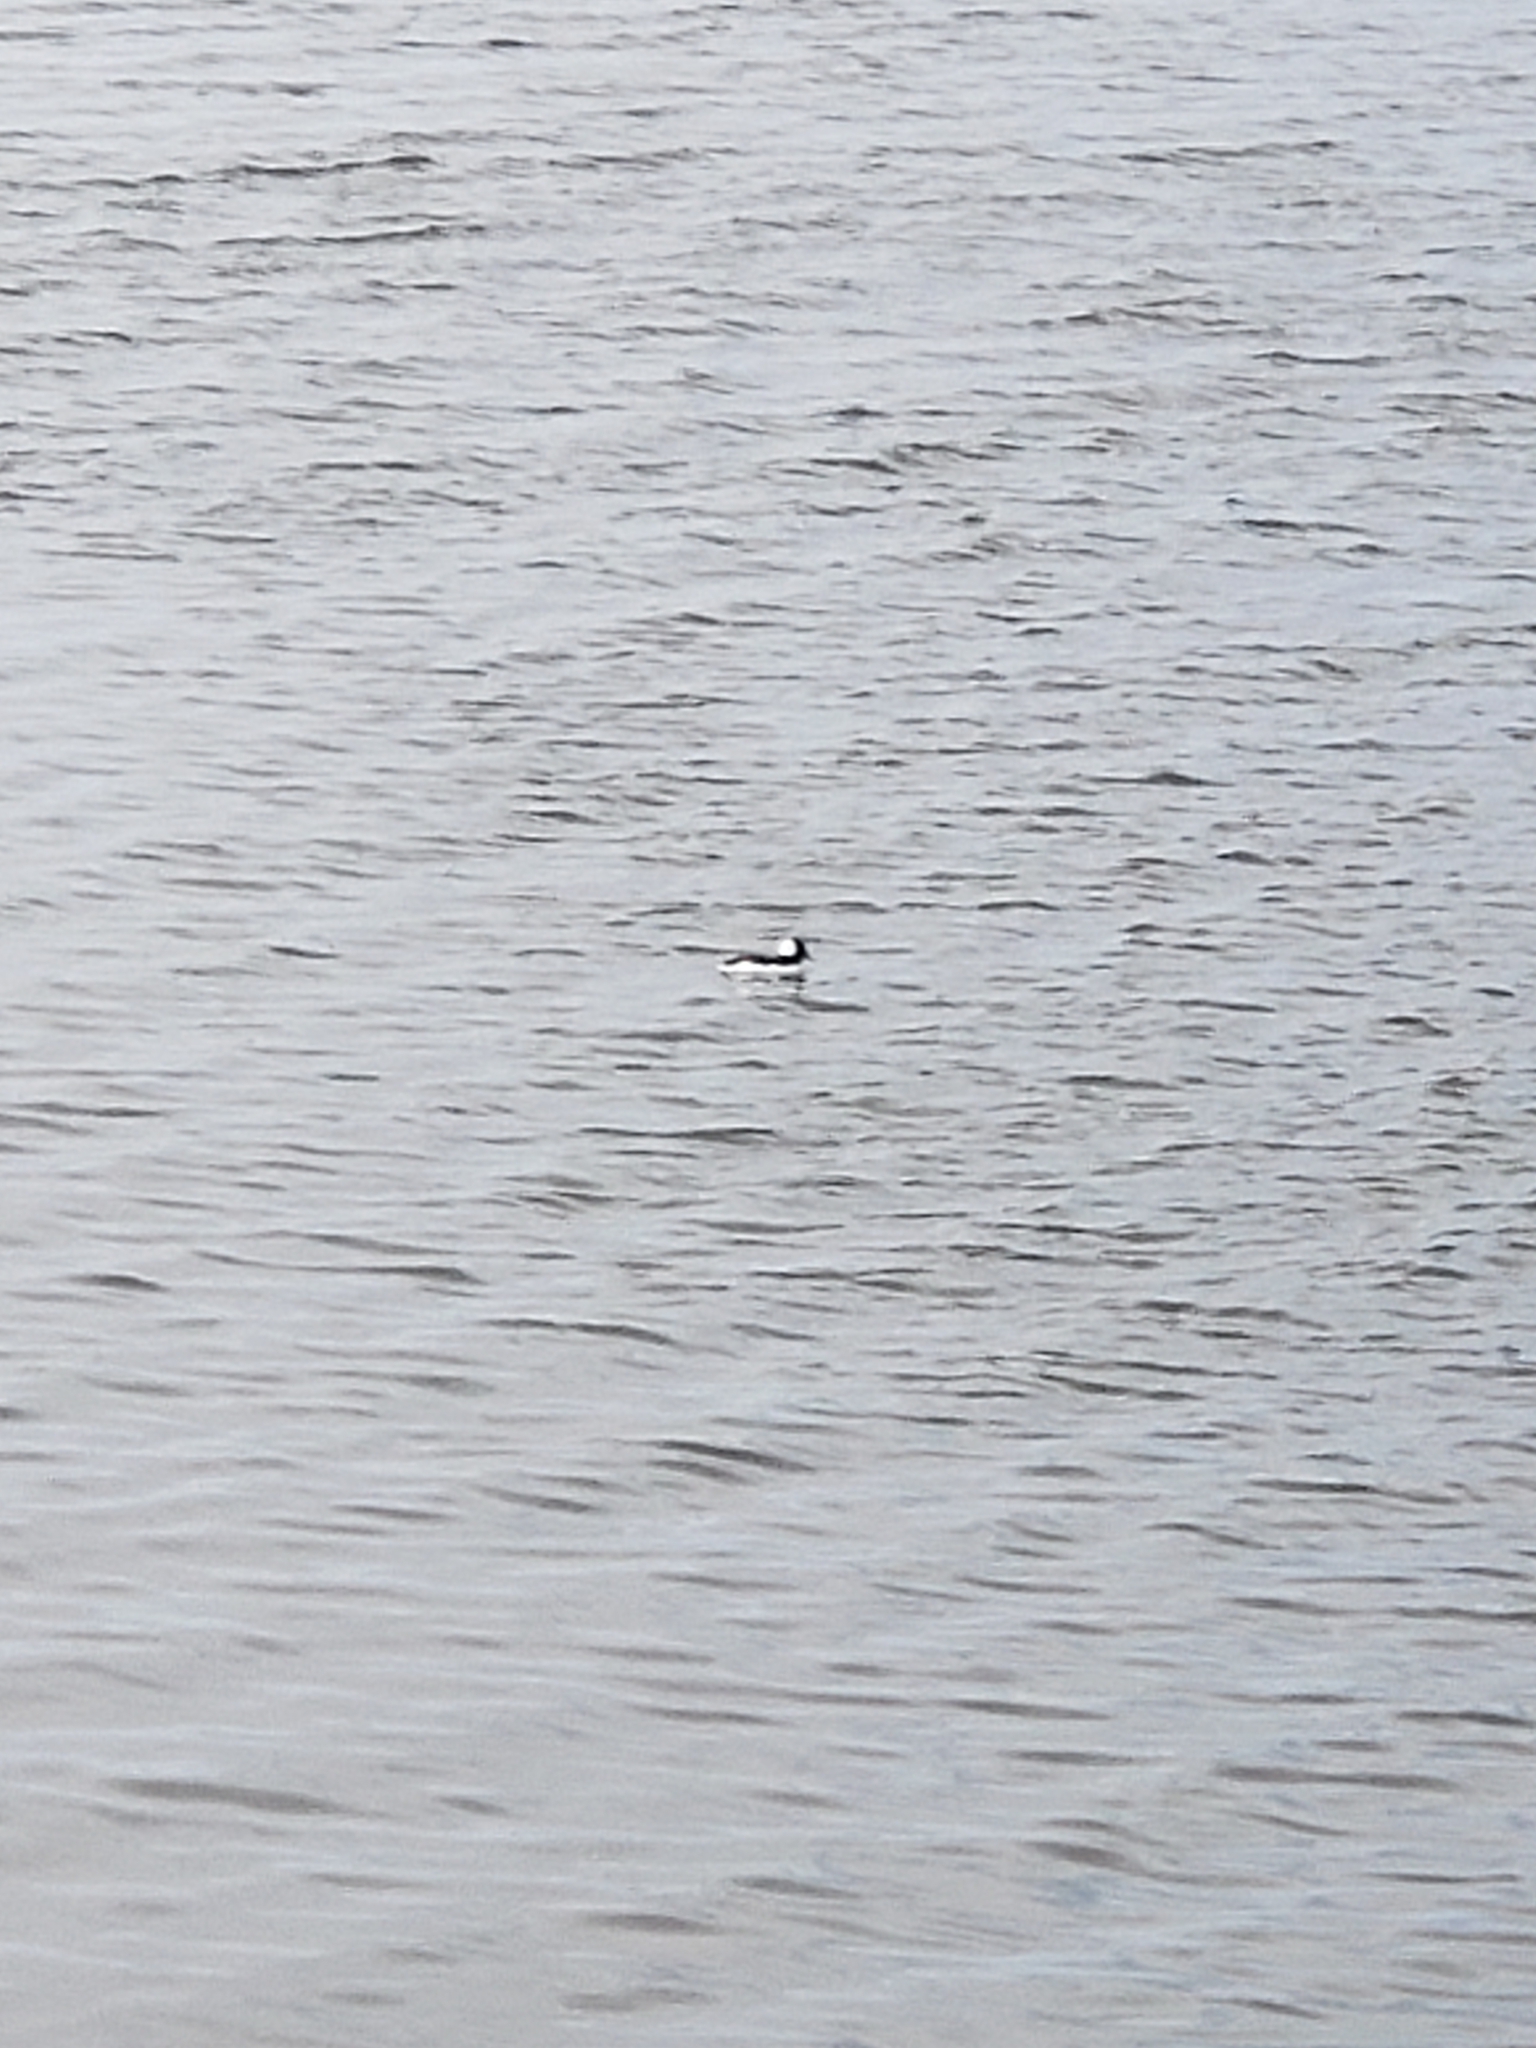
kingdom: Animalia
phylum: Chordata
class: Aves
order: Anseriformes
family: Anatidae
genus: Bucephala
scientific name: Bucephala albeola
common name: Bufflehead
